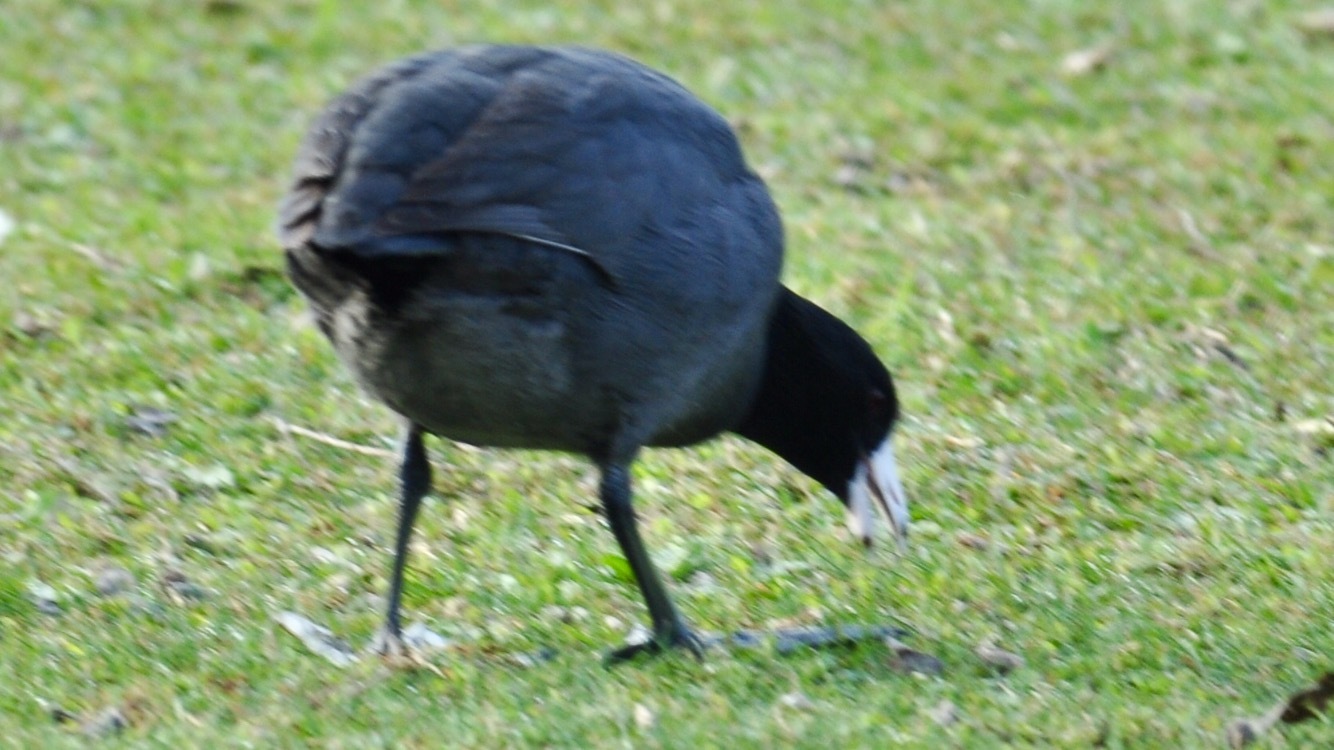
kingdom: Animalia
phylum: Chordata
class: Aves
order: Gruiformes
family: Rallidae
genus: Fulica
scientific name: Fulica americana
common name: American coot
